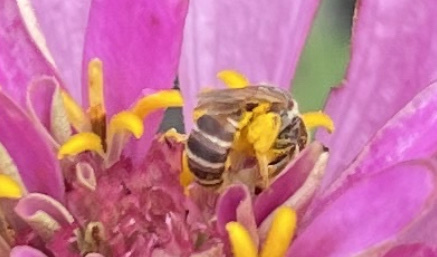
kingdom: Animalia
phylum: Arthropoda
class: Insecta
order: Hymenoptera
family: Halictidae
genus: Halictus
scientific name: Halictus ligatus
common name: Ligated furrow bee
